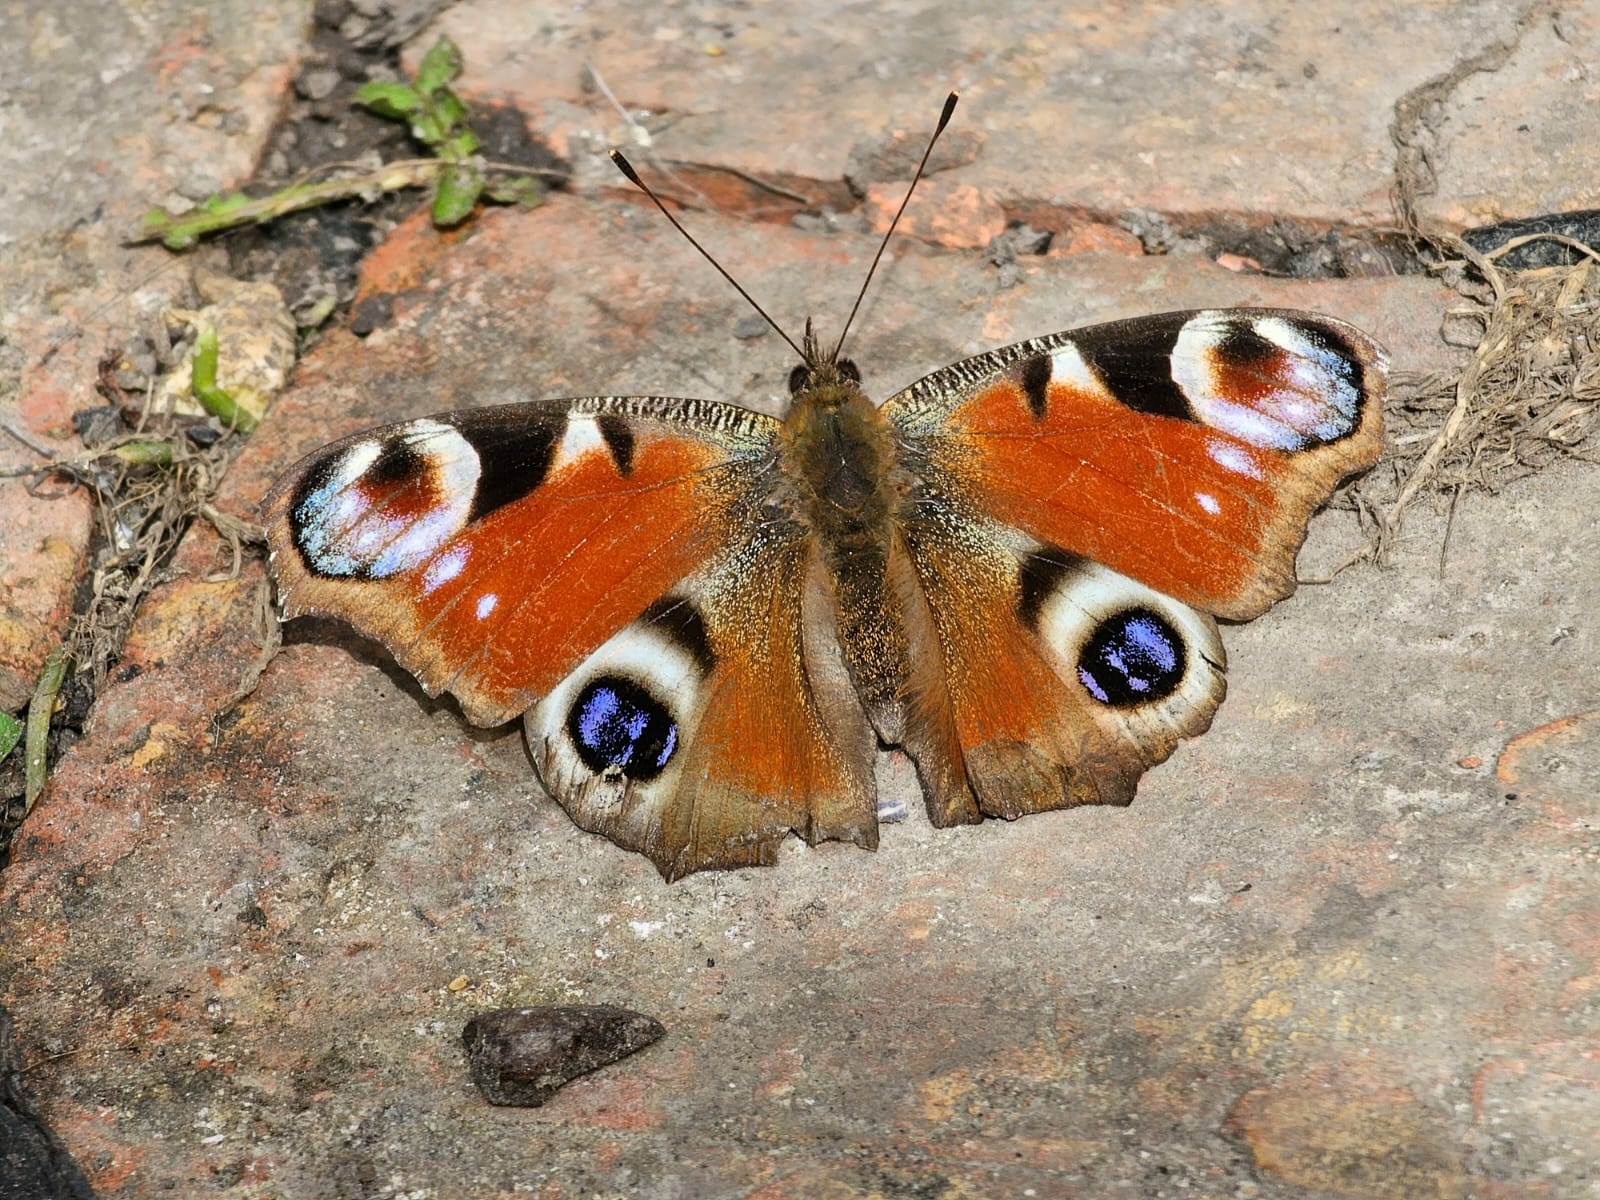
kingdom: Animalia
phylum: Arthropoda
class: Insecta
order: Lepidoptera
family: Nymphalidae
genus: Aglais
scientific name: Aglais io
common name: Peacock
